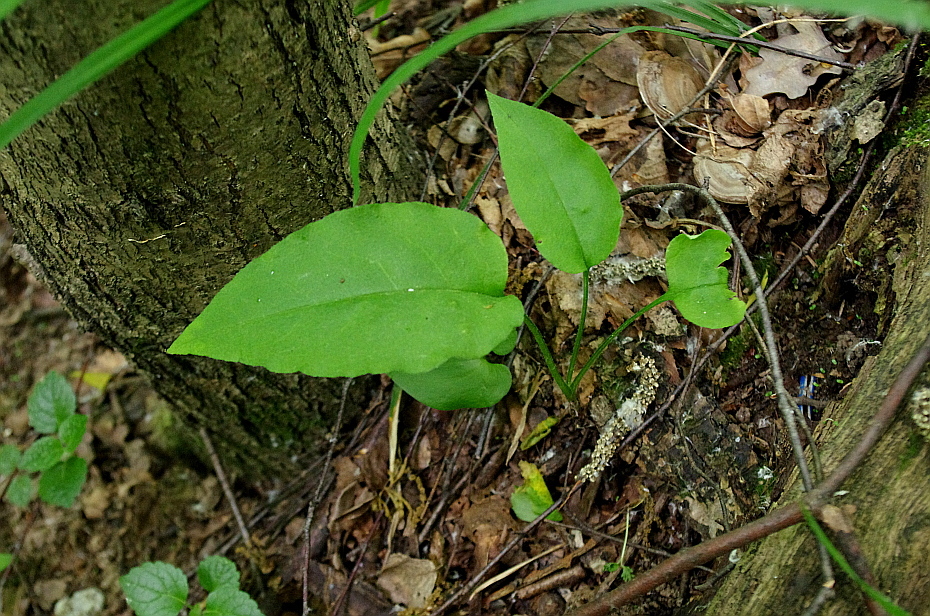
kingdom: Plantae
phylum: Tracheophyta
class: Magnoliopsida
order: Boraginales
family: Boraginaceae
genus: Pulmonaria
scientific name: Pulmonaria obscura
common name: Suffolk lungwort
